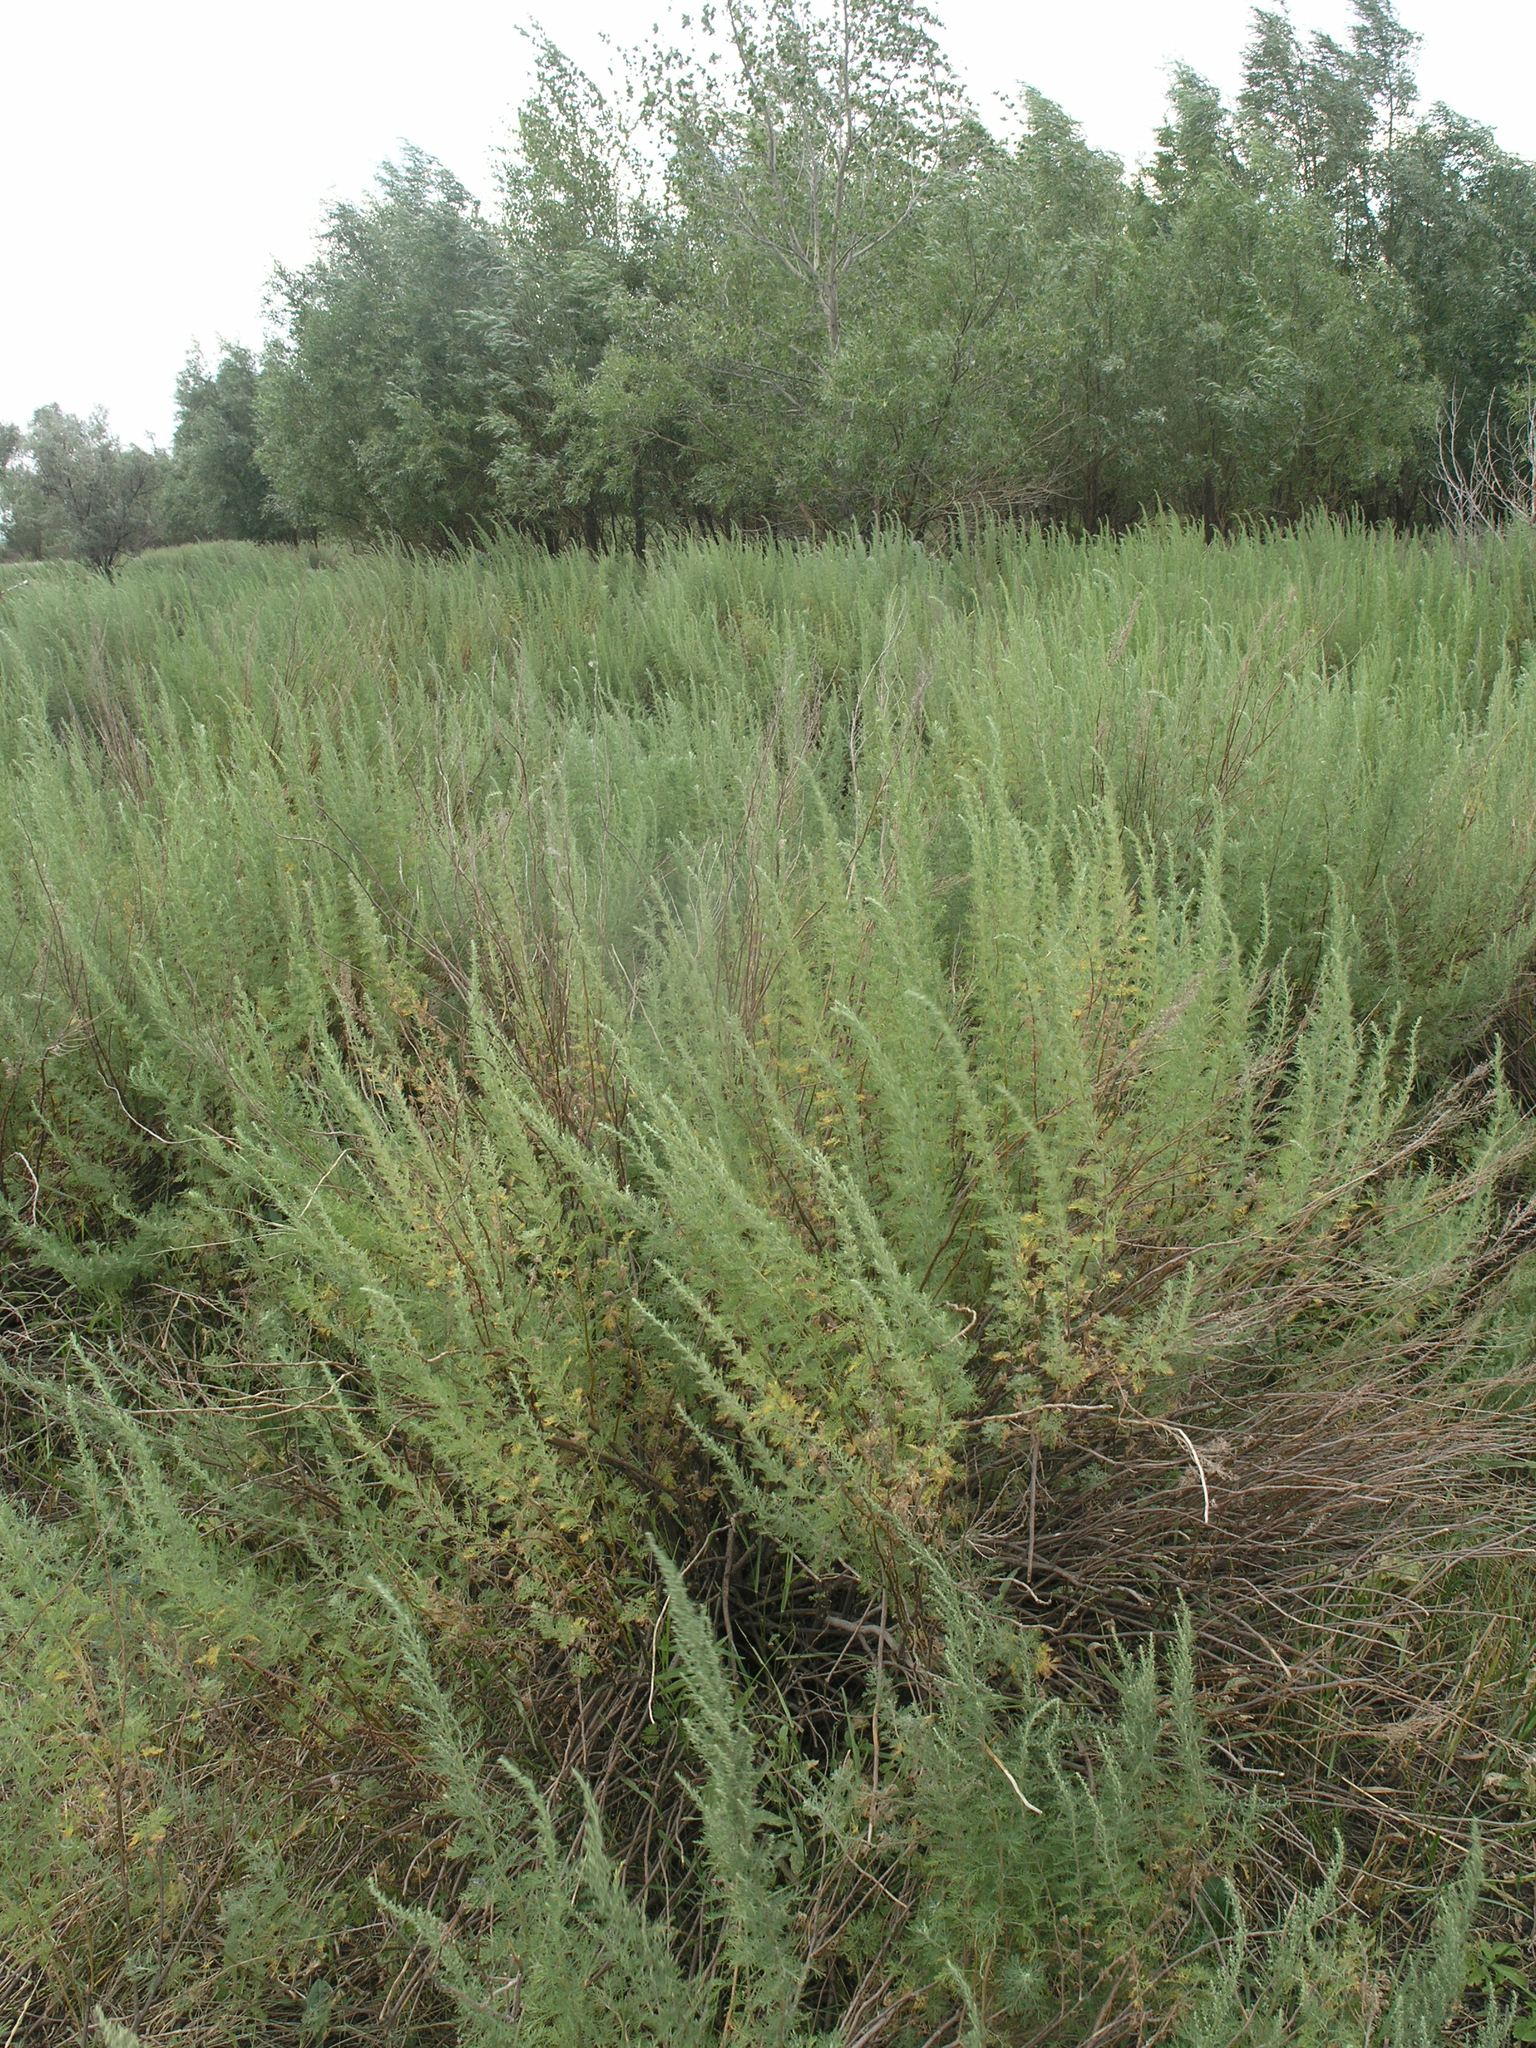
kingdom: Plantae
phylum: Tracheophyta
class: Magnoliopsida
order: Asterales
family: Asteraceae
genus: Artemisia
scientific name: Artemisia abrotanum
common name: Southernwood
